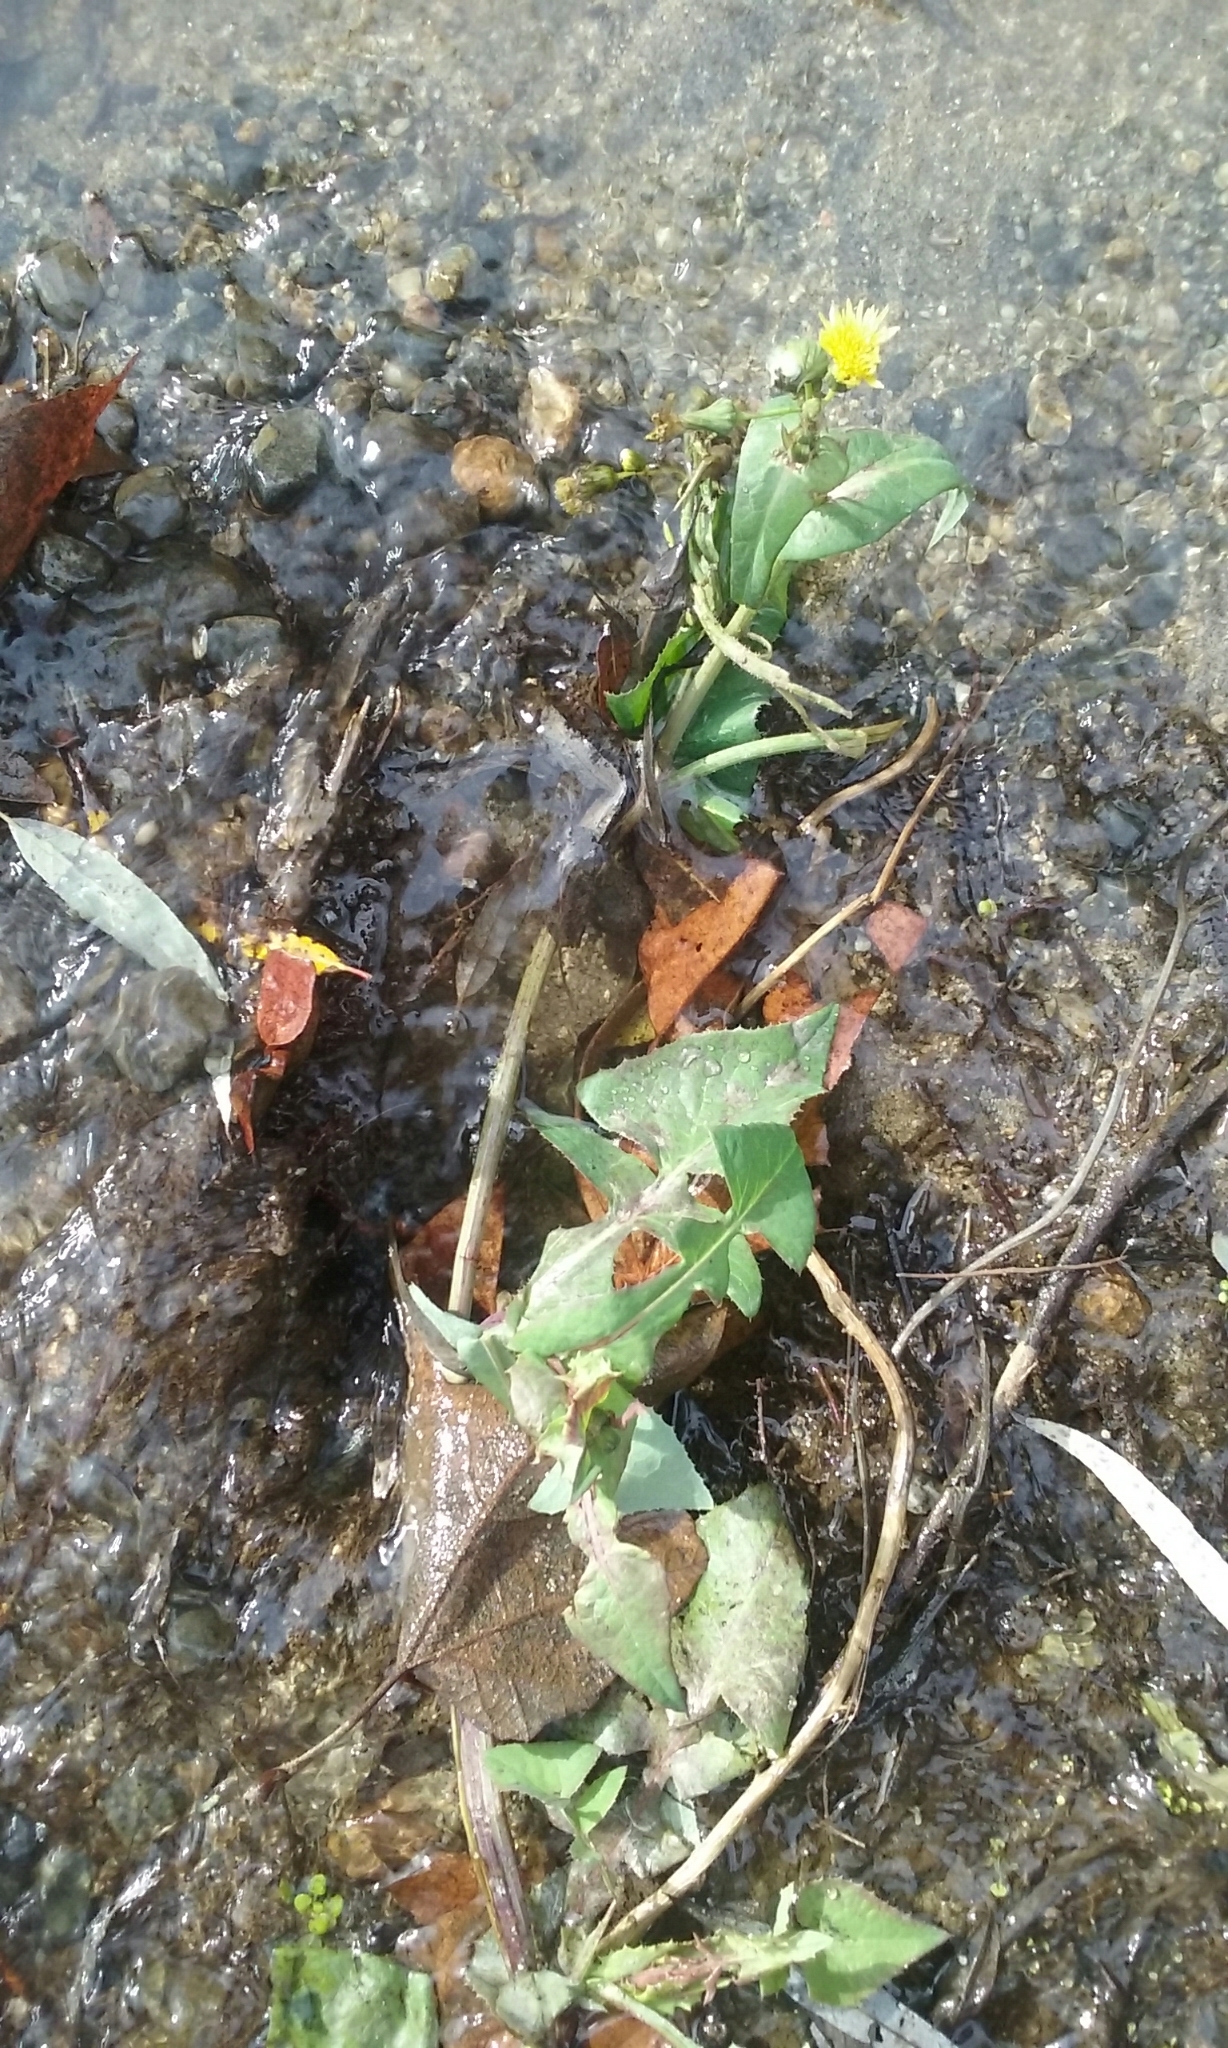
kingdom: Plantae
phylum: Tracheophyta
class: Magnoliopsida
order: Asterales
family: Asteraceae
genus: Sonchus
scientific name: Sonchus oleraceus
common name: Common sowthistle
